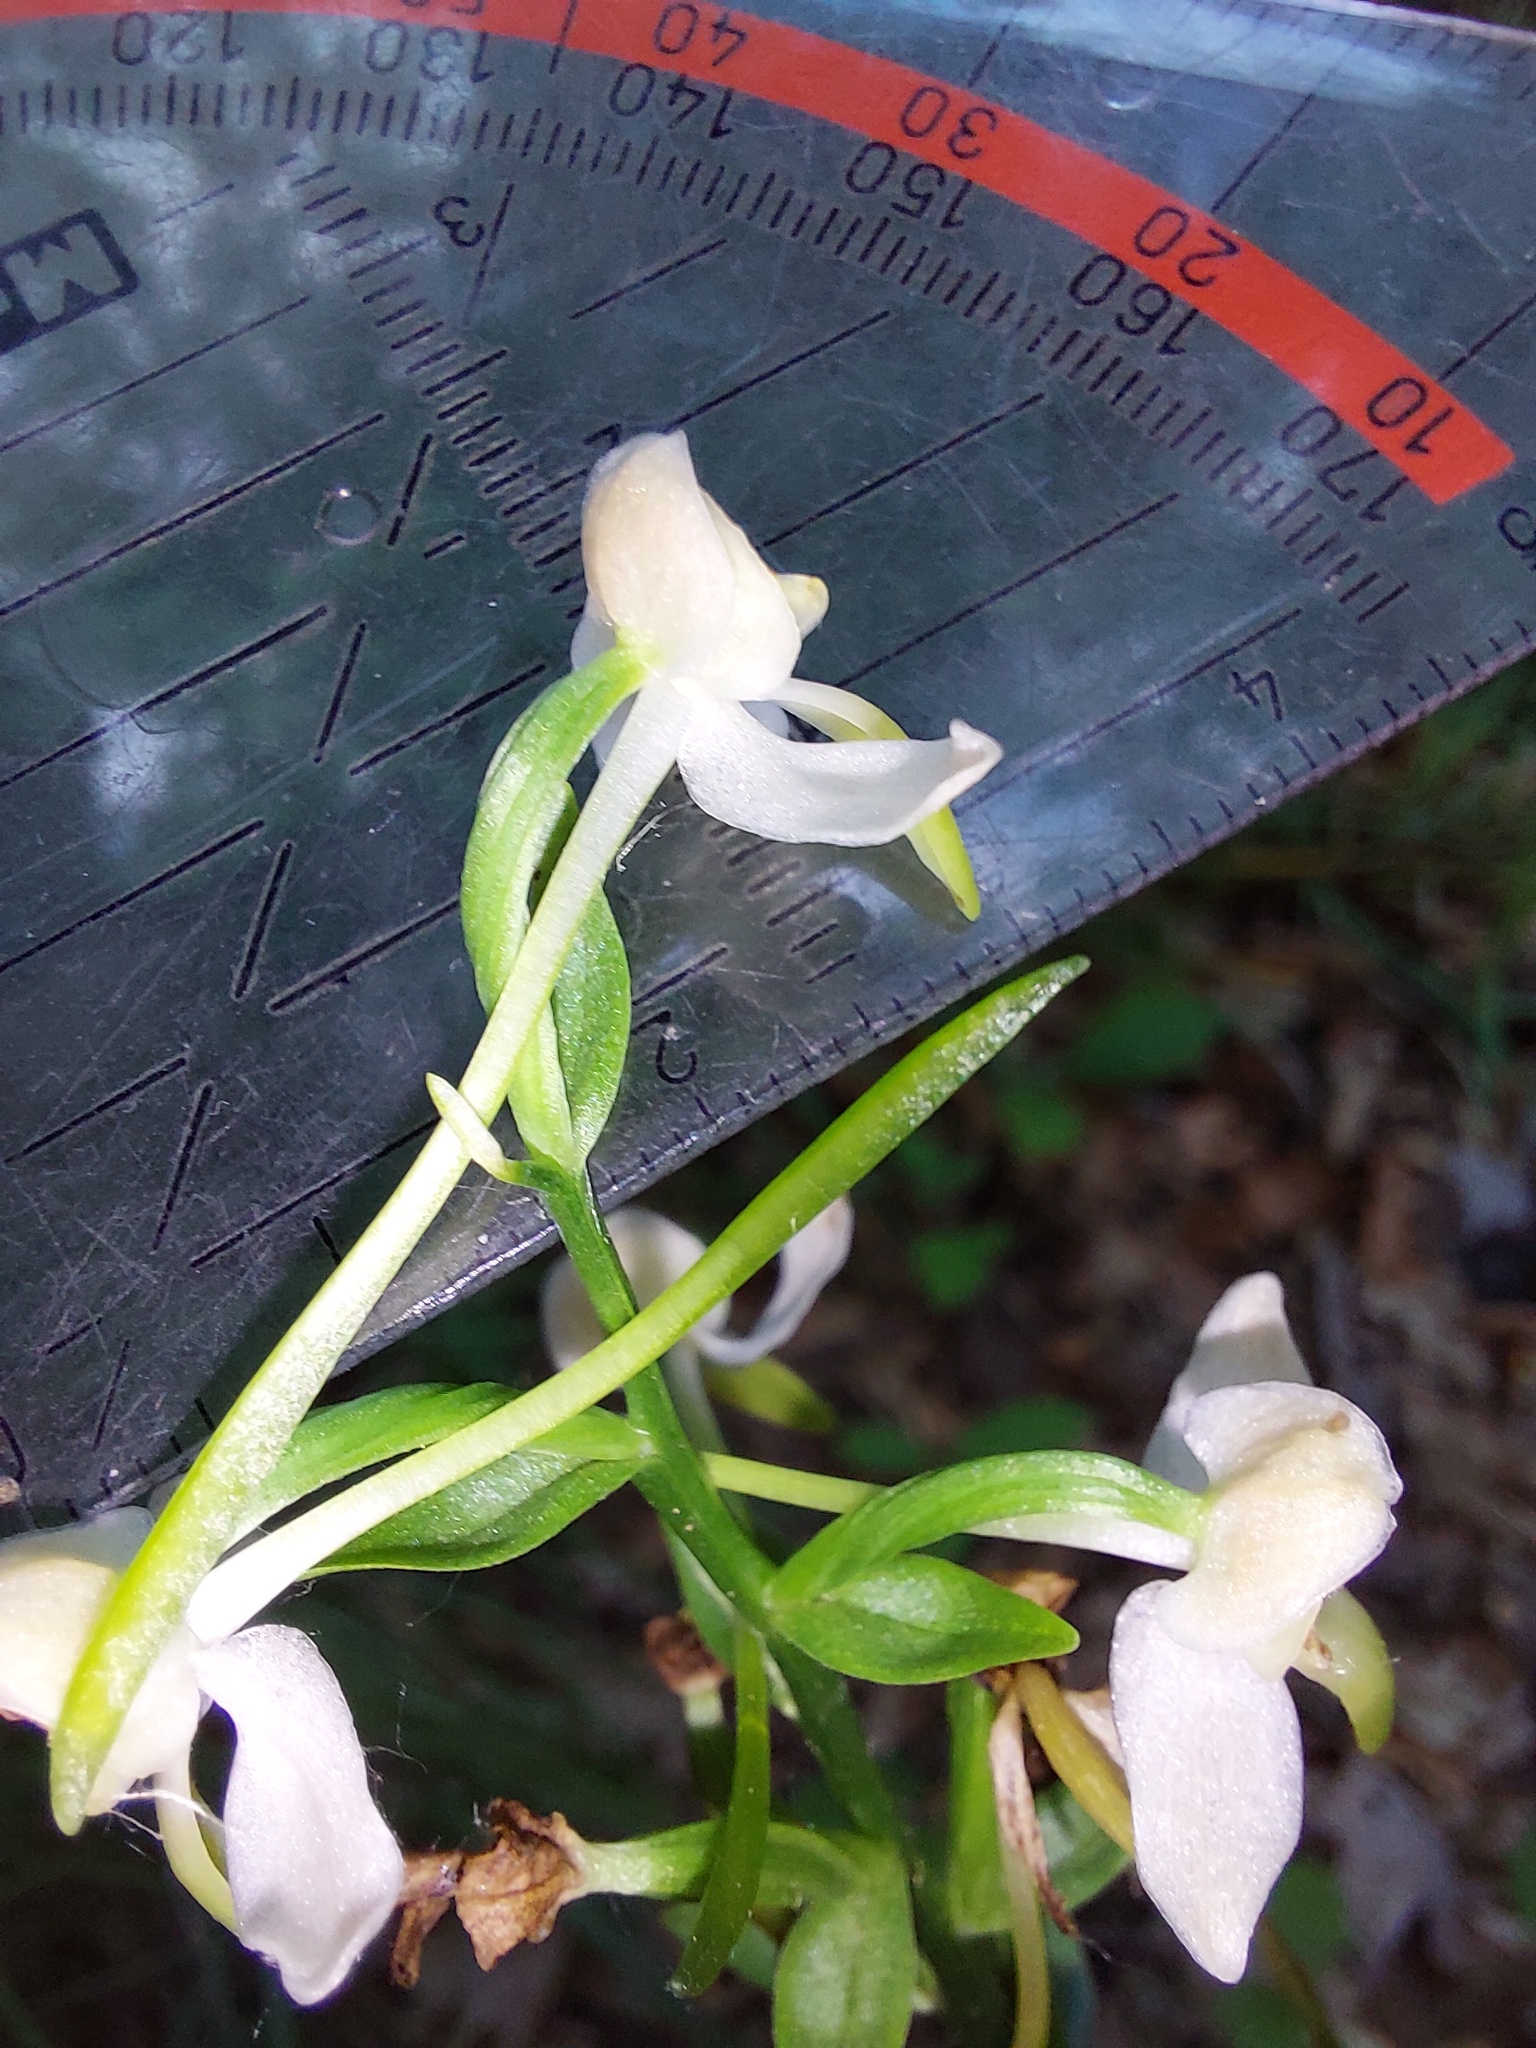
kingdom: Plantae
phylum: Tracheophyta
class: Liliopsida
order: Asparagales
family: Orchidaceae
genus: Platanthera
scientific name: Platanthera chlorantha
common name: Greater butterfly-orchid
